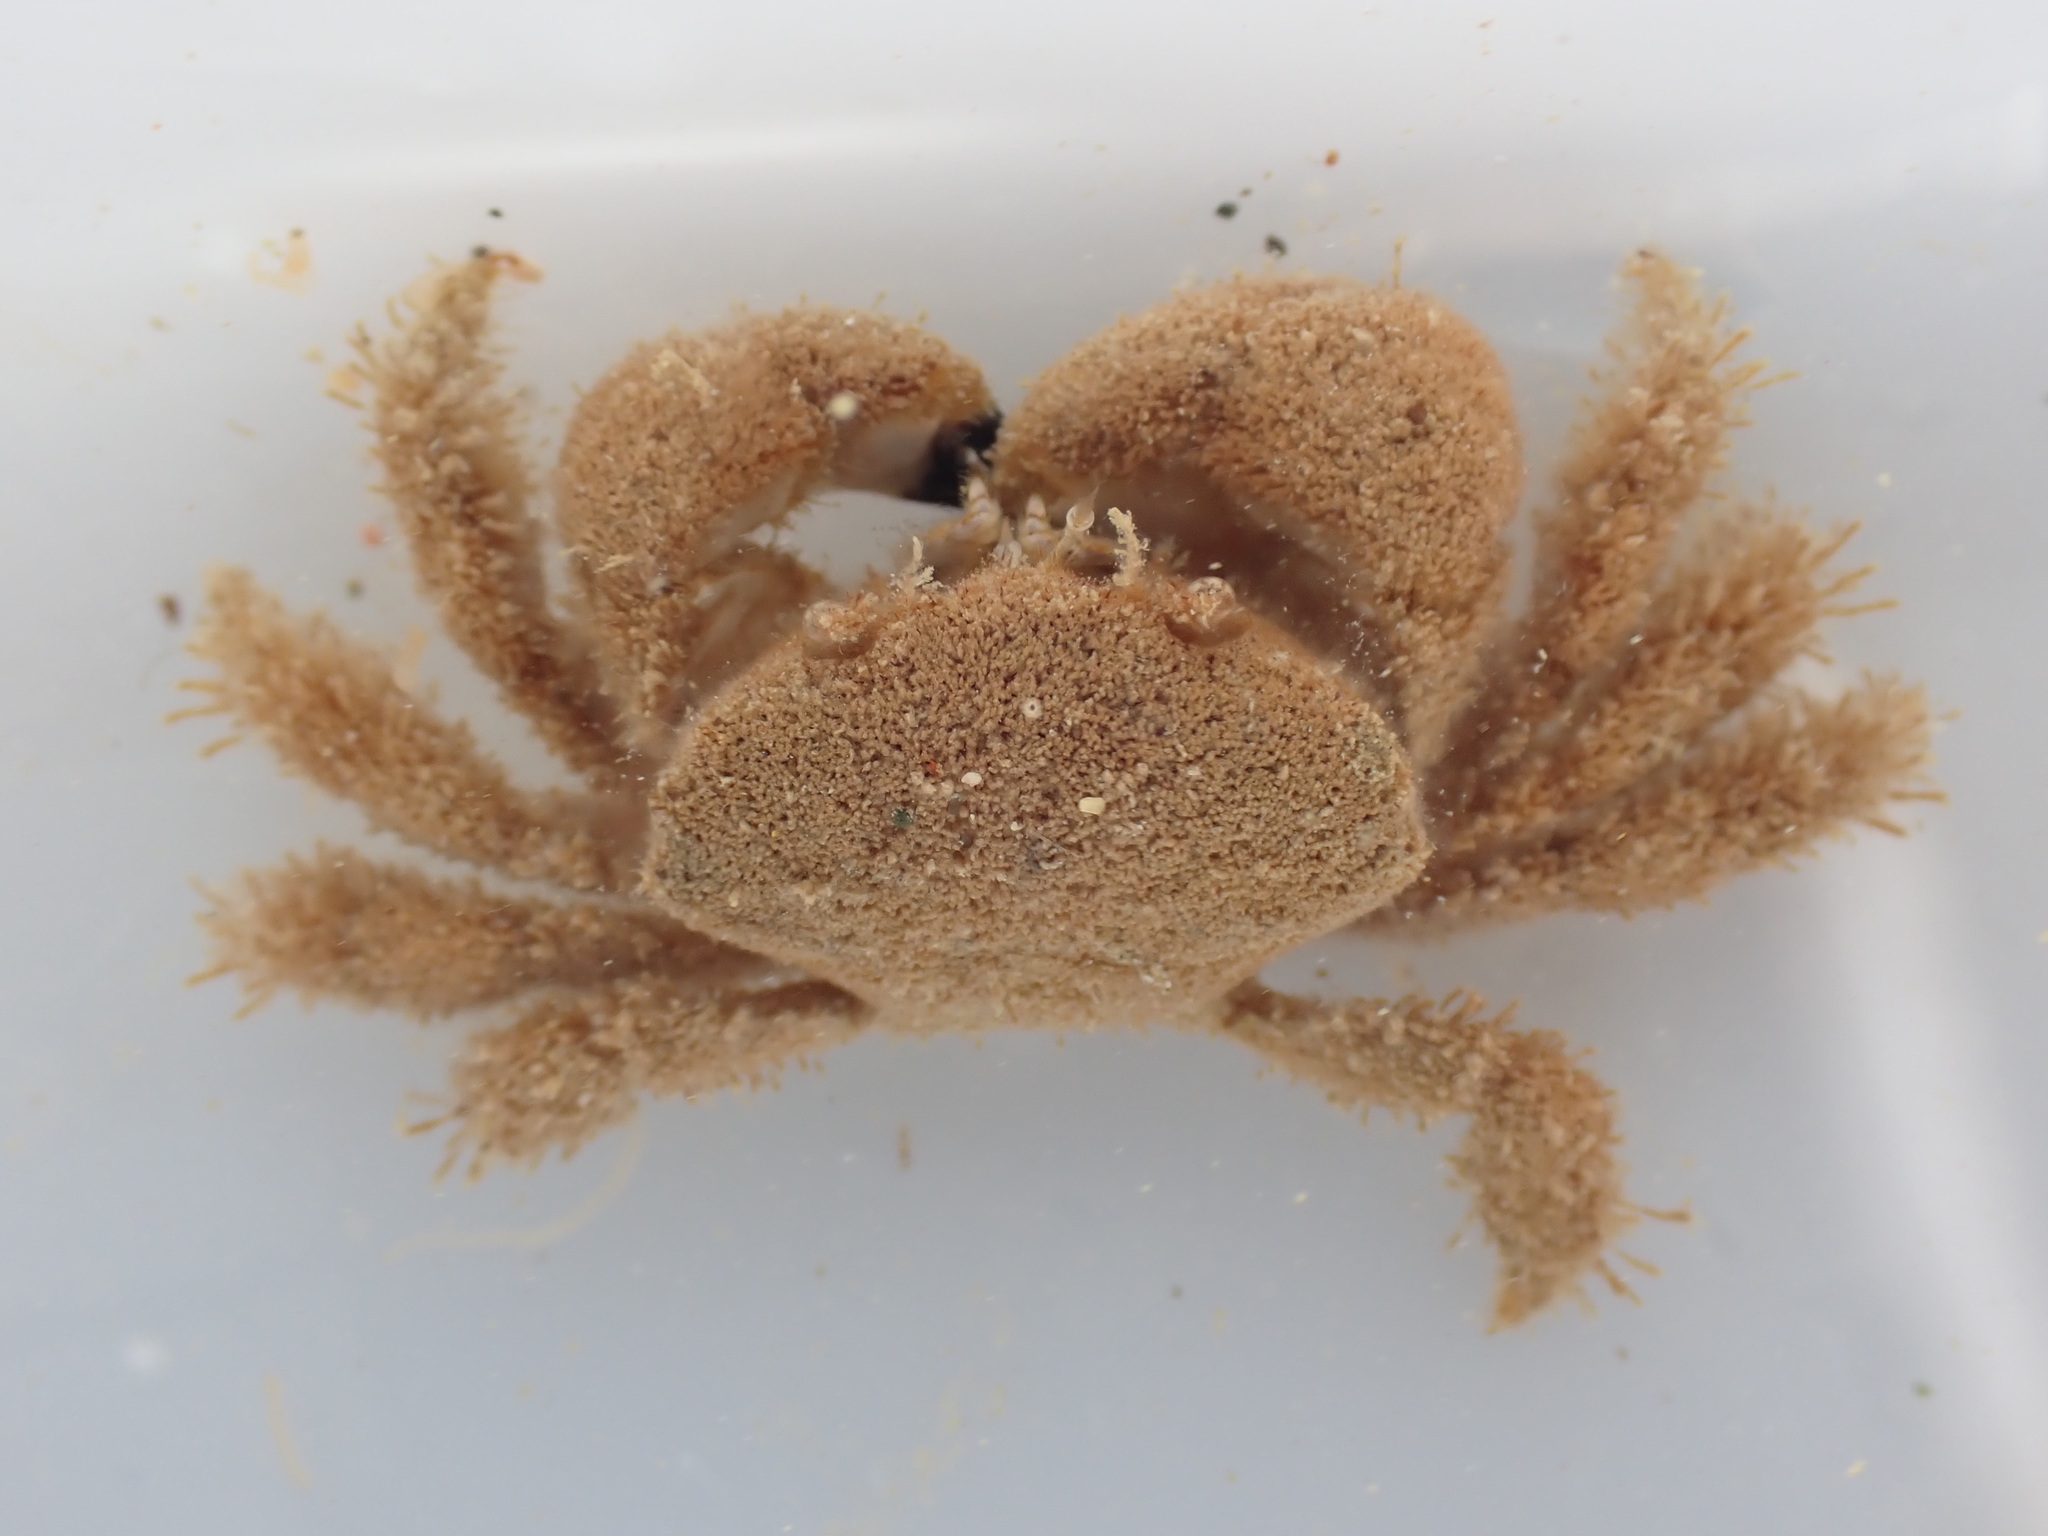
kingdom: Animalia
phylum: Arthropoda
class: Malacostraca
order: Decapoda
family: Pilumnidae
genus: Pilumnus
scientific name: Pilumnus lumpinus
